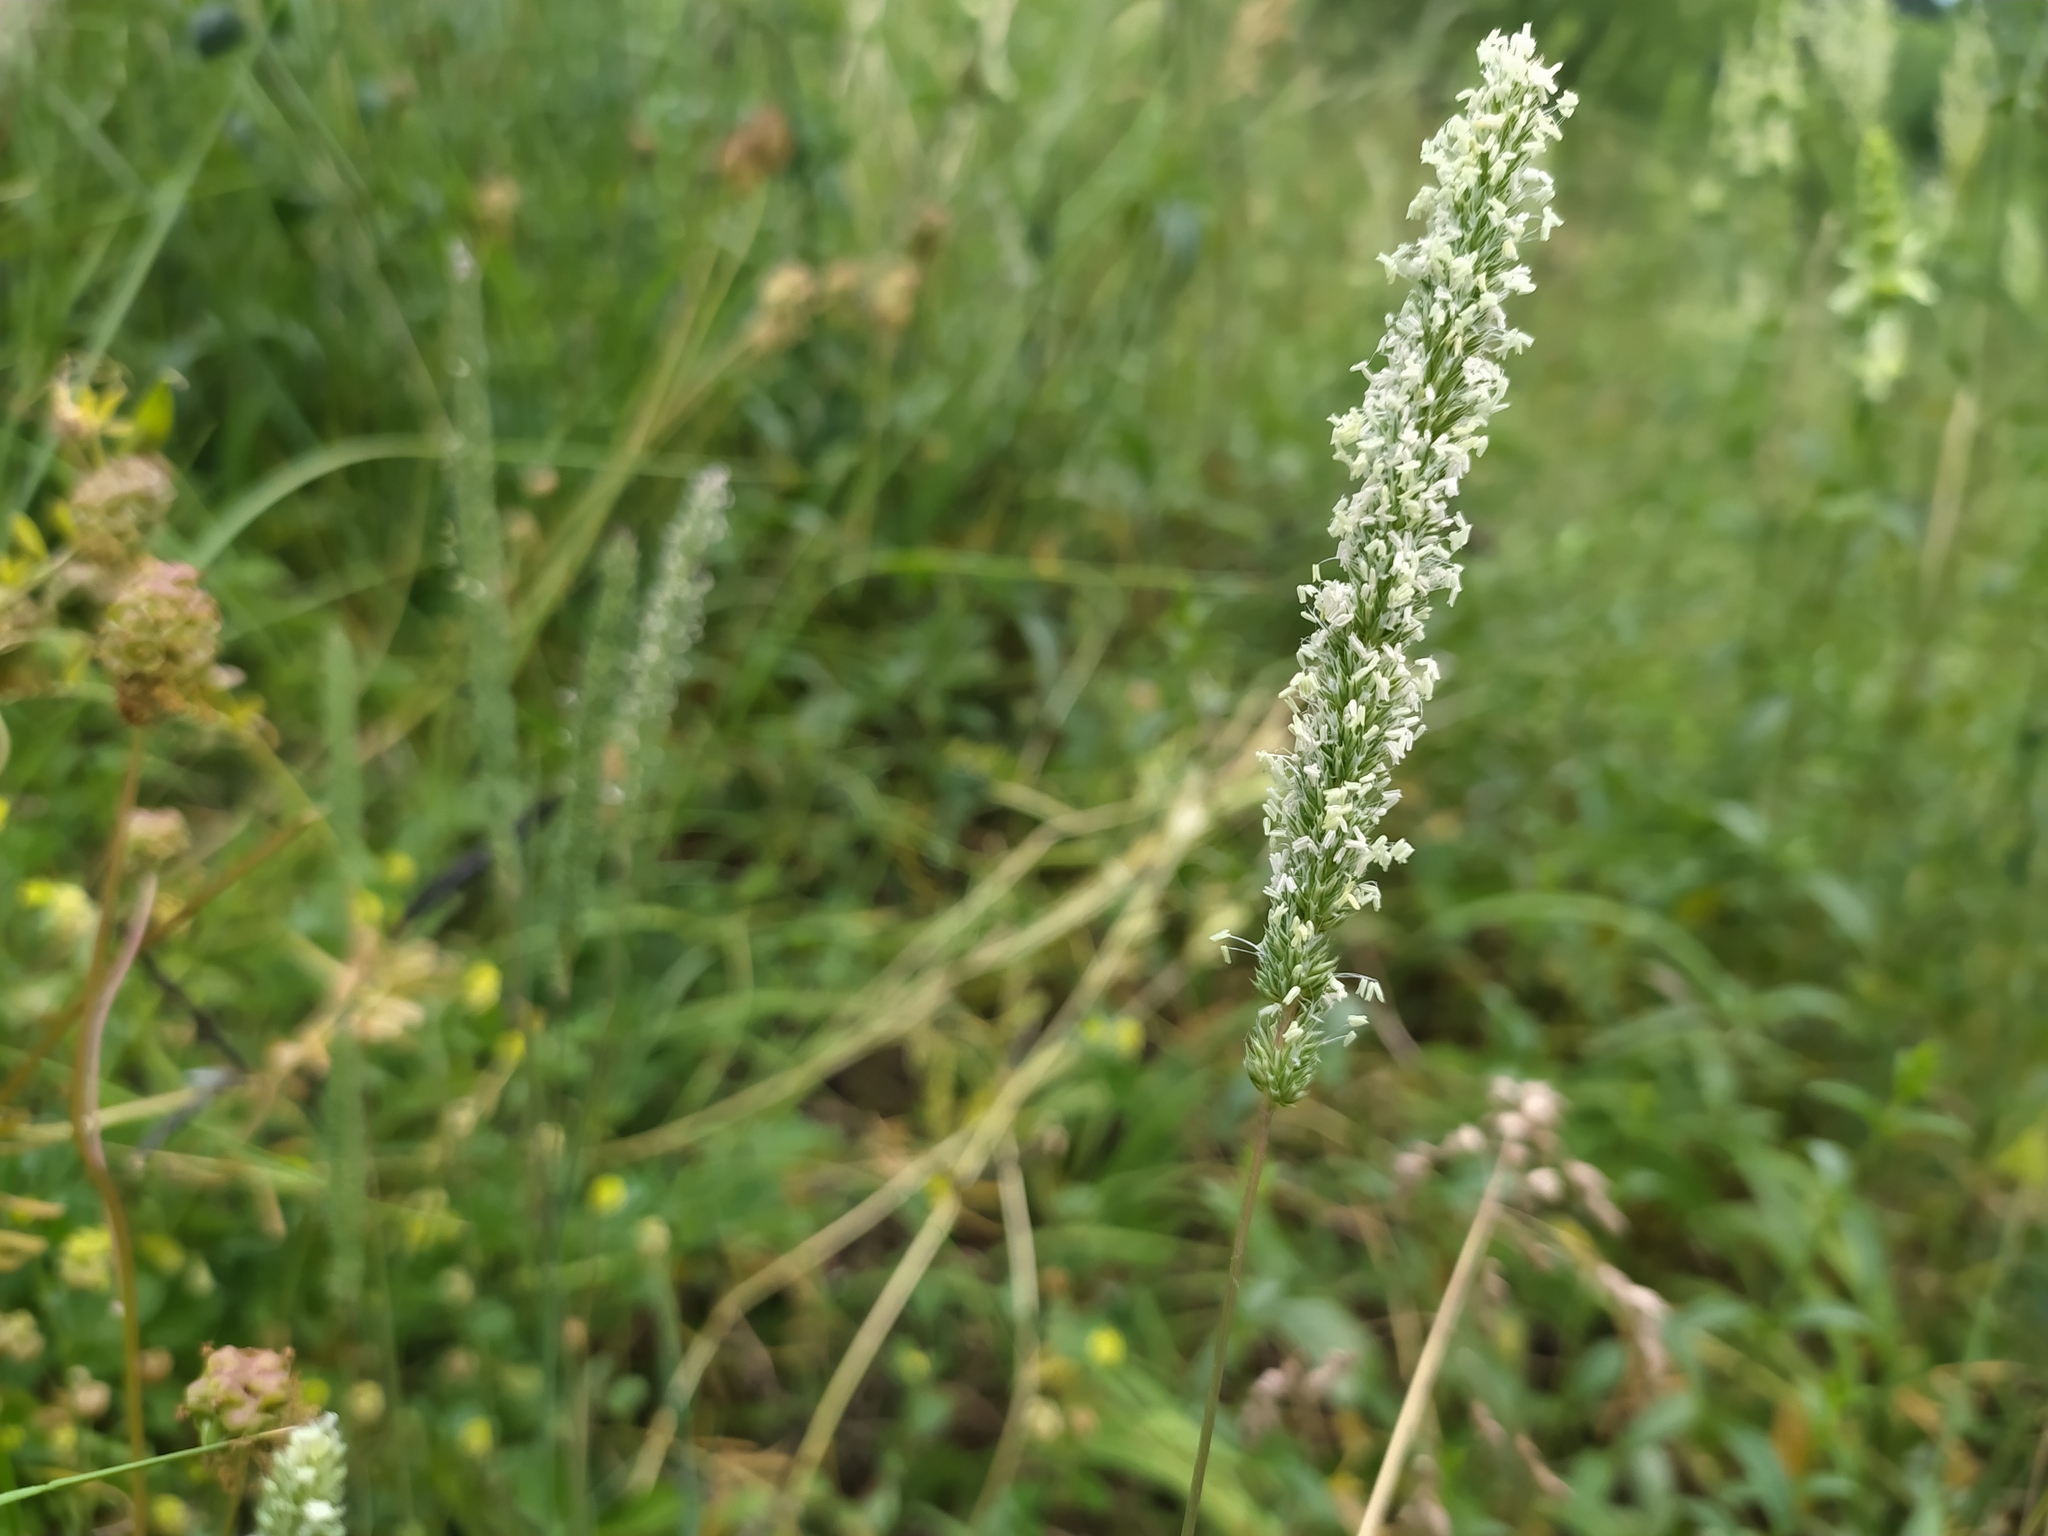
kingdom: Plantae
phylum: Tracheophyta
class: Liliopsida
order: Poales
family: Poaceae
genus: Phleum
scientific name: Phleum phleoides
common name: Purple-stem cat's-tail
